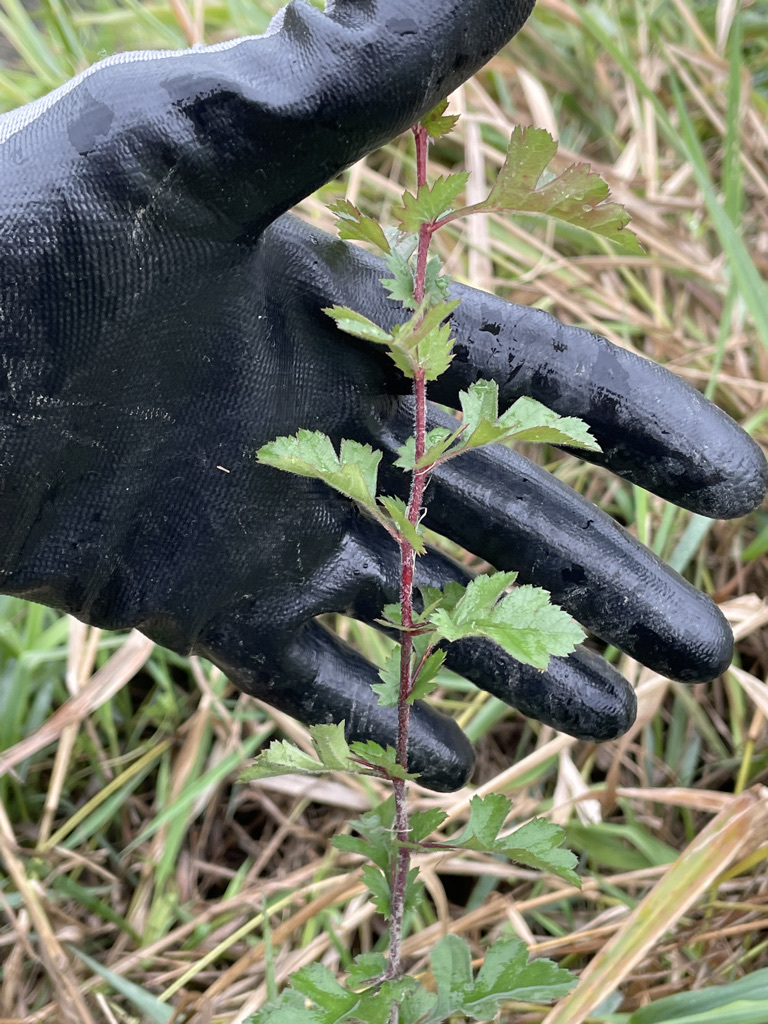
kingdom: Plantae
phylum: Tracheophyta
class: Magnoliopsida
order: Rosales
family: Rosaceae
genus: Crataegus
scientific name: Crataegus monogyna
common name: Hawthorn
